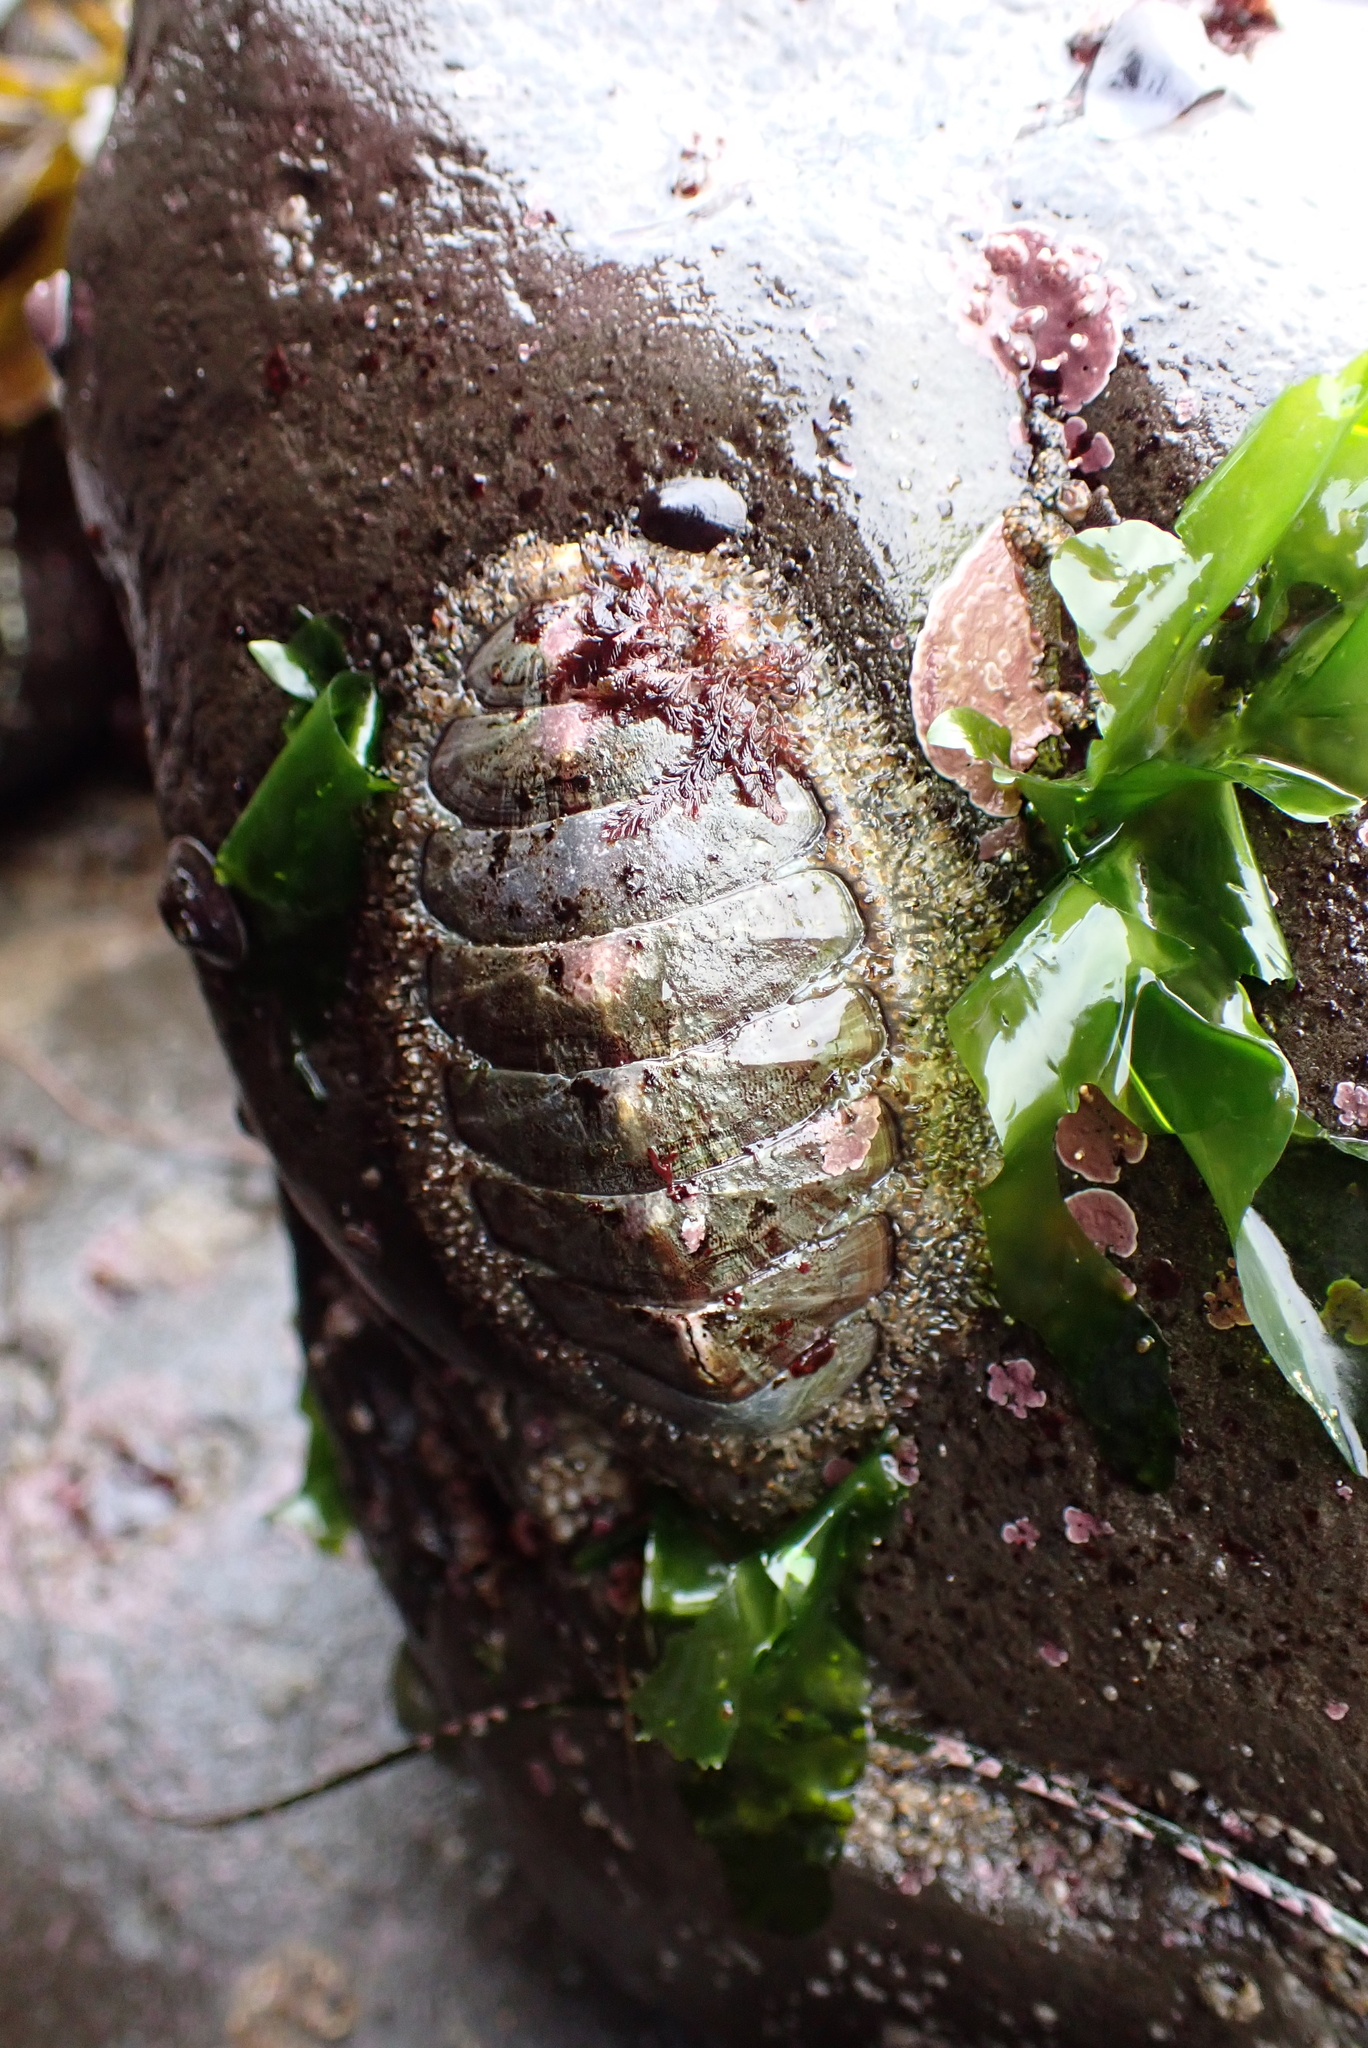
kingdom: Animalia
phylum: Mollusca
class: Polyplacophora
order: Chitonida
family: Mopaliidae
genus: Mopalia
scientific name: Mopalia lignosa
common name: Woody chiton
